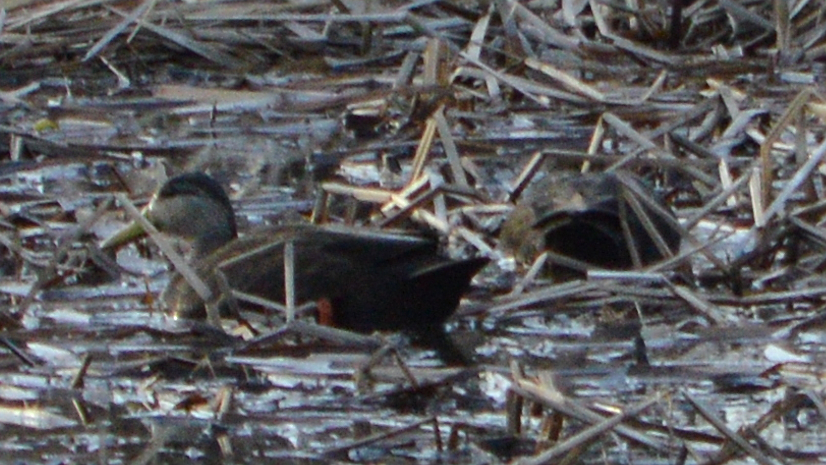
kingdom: Animalia
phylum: Chordata
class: Aves
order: Anseriformes
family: Anatidae
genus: Anas
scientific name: Anas rubripes
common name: American black duck
